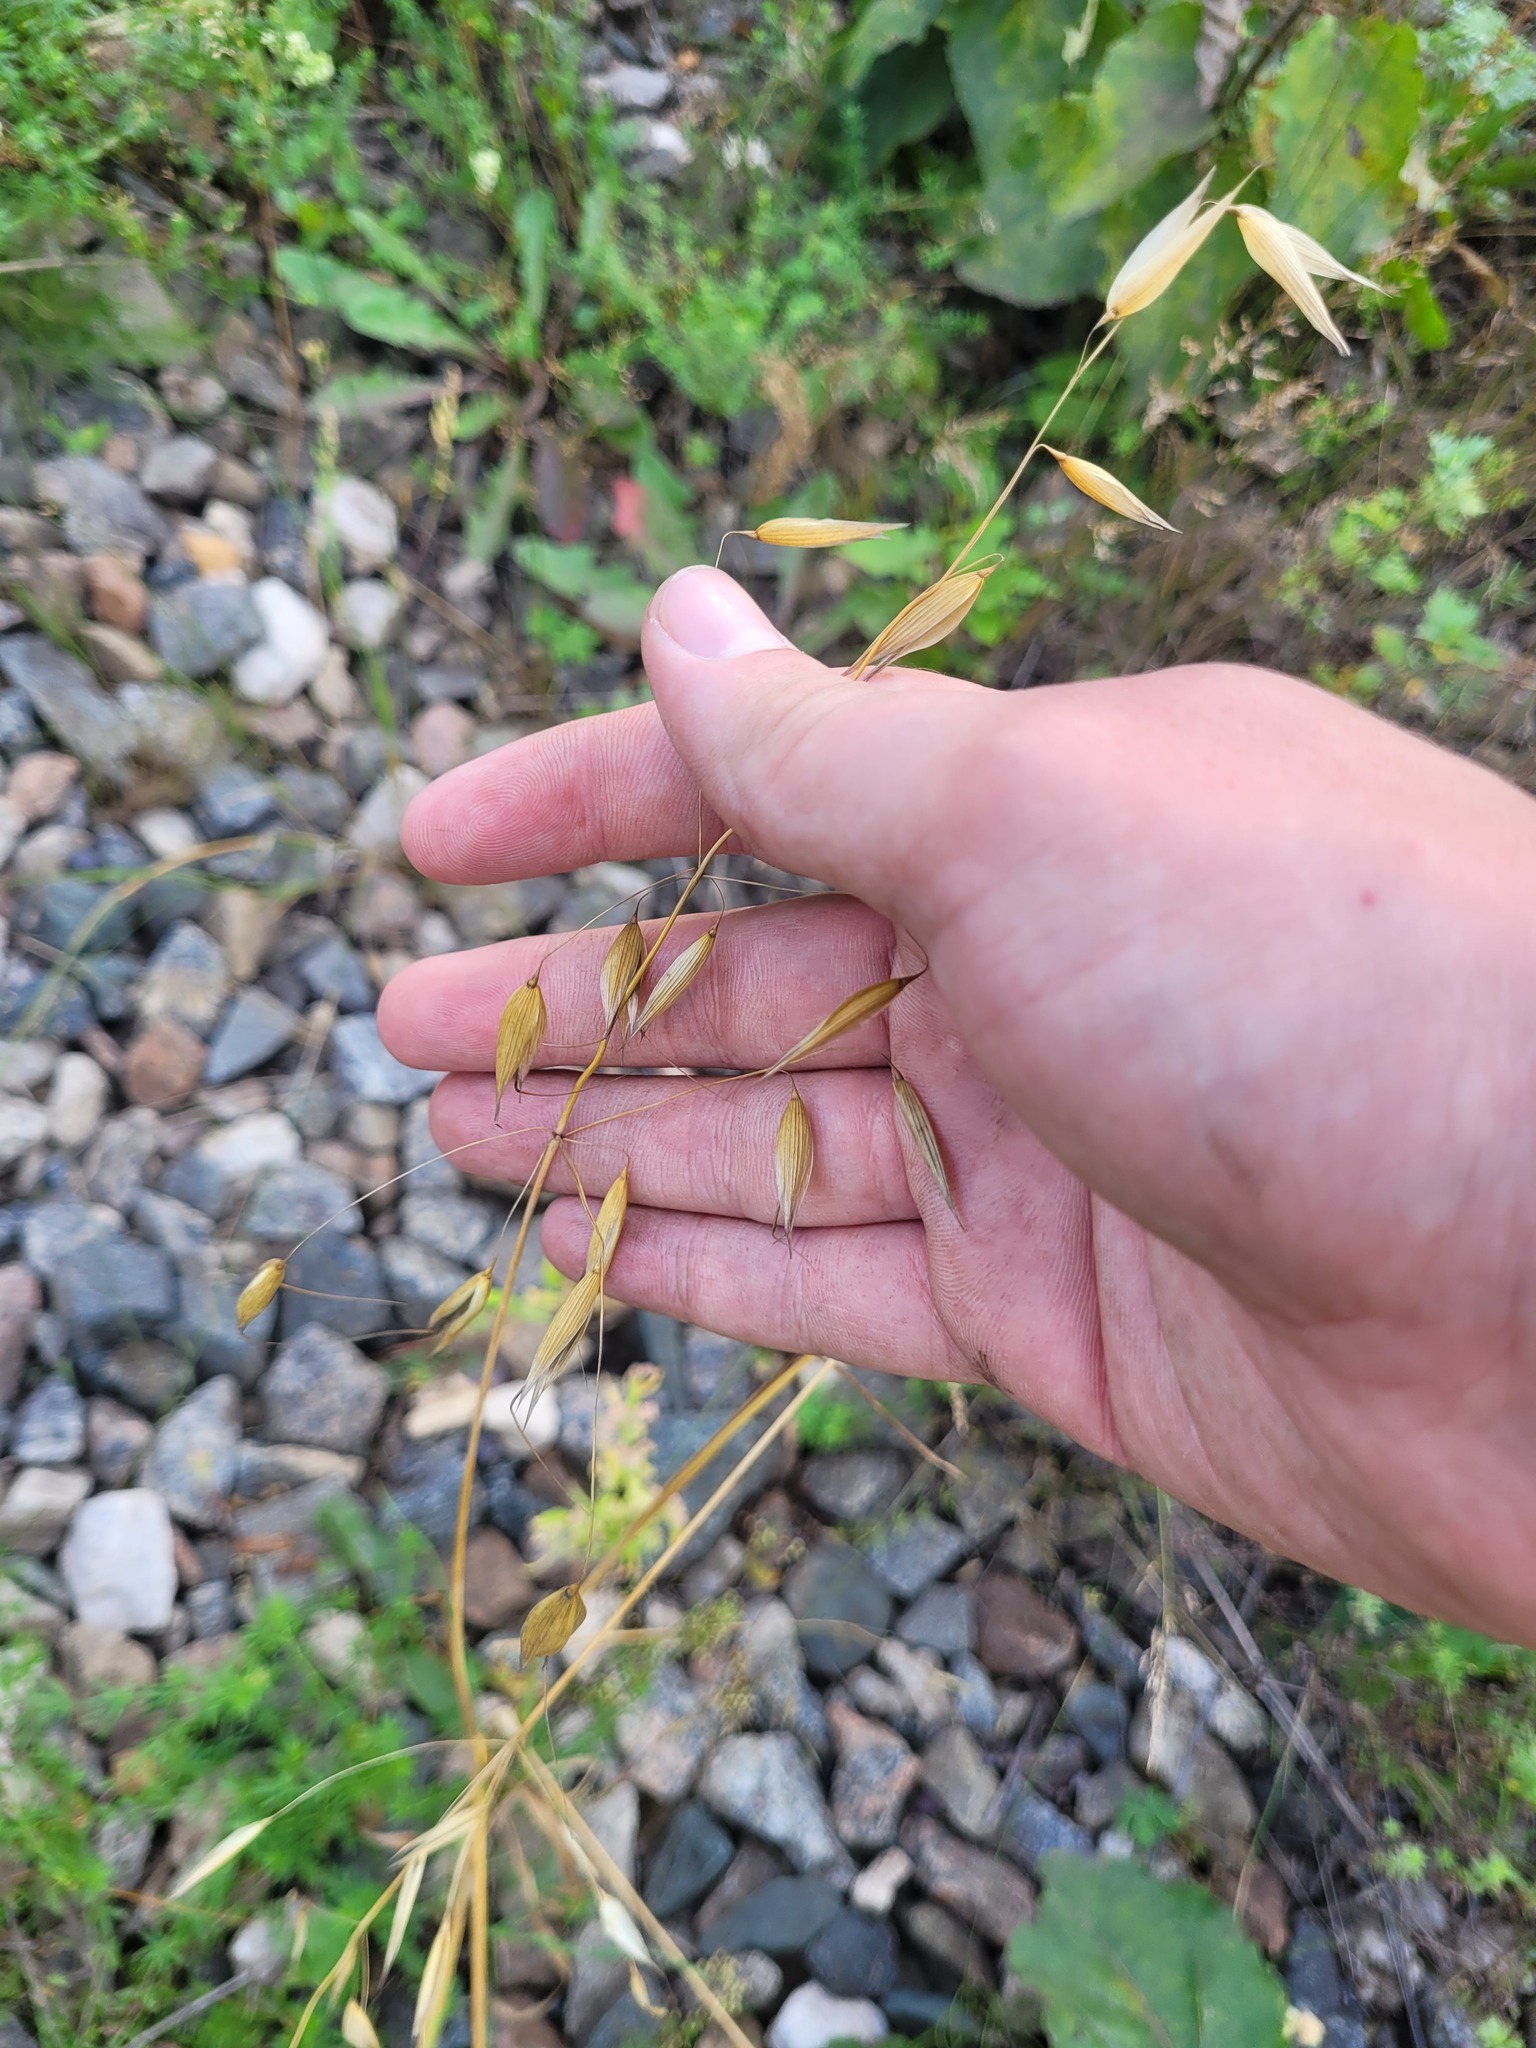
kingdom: Plantae
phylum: Tracheophyta
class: Liliopsida
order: Poales
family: Poaceae
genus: Avena
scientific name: Avena fatua
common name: Wild oat
